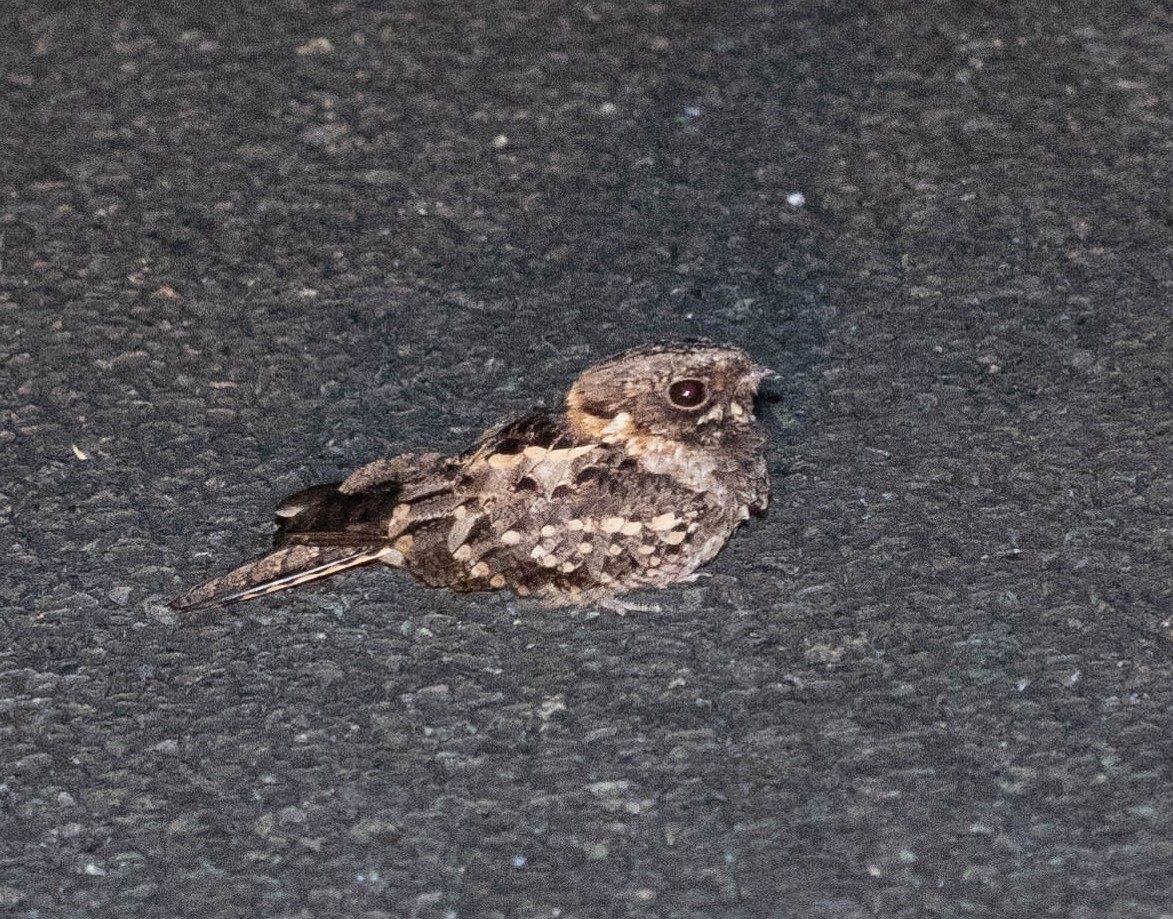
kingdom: Animalia
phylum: Chordata
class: Aves
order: Caprimulgiformes
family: Caprimulgidae
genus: Caprimulgus
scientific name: Caprimulgus pectoralis
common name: Fiery-necked nightjar
